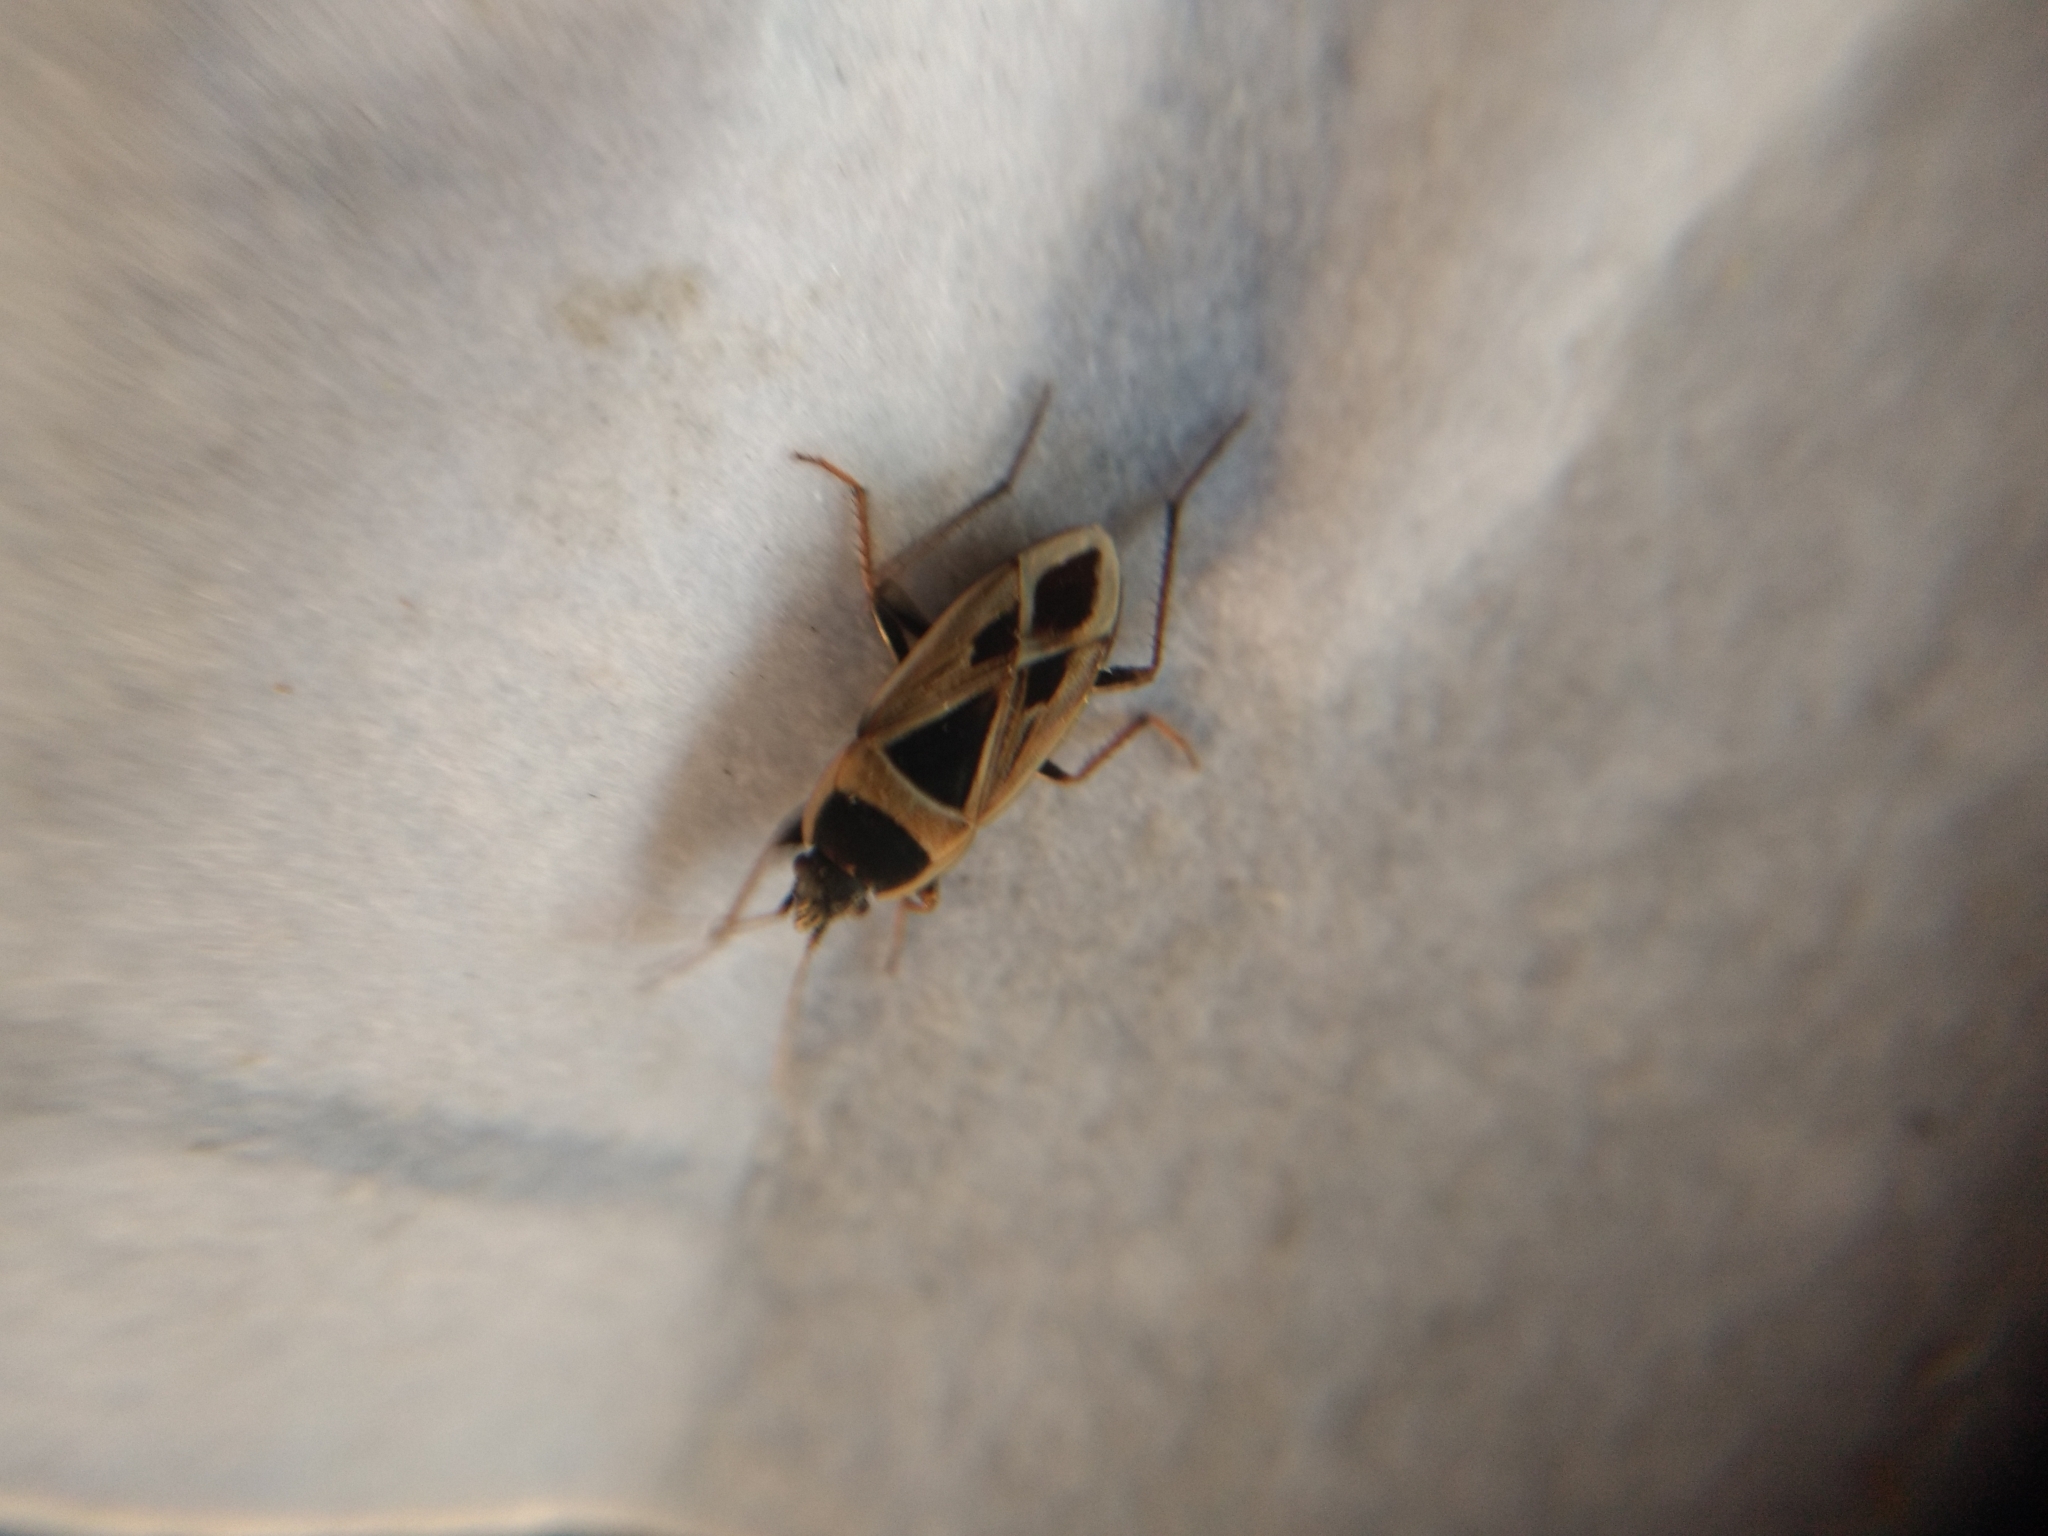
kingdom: Animalia
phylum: Arthropoda
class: Insecta
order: Hemiptera
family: Rhyparochromidae
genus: Xanthochilus
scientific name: Xanthochilus saturnius
